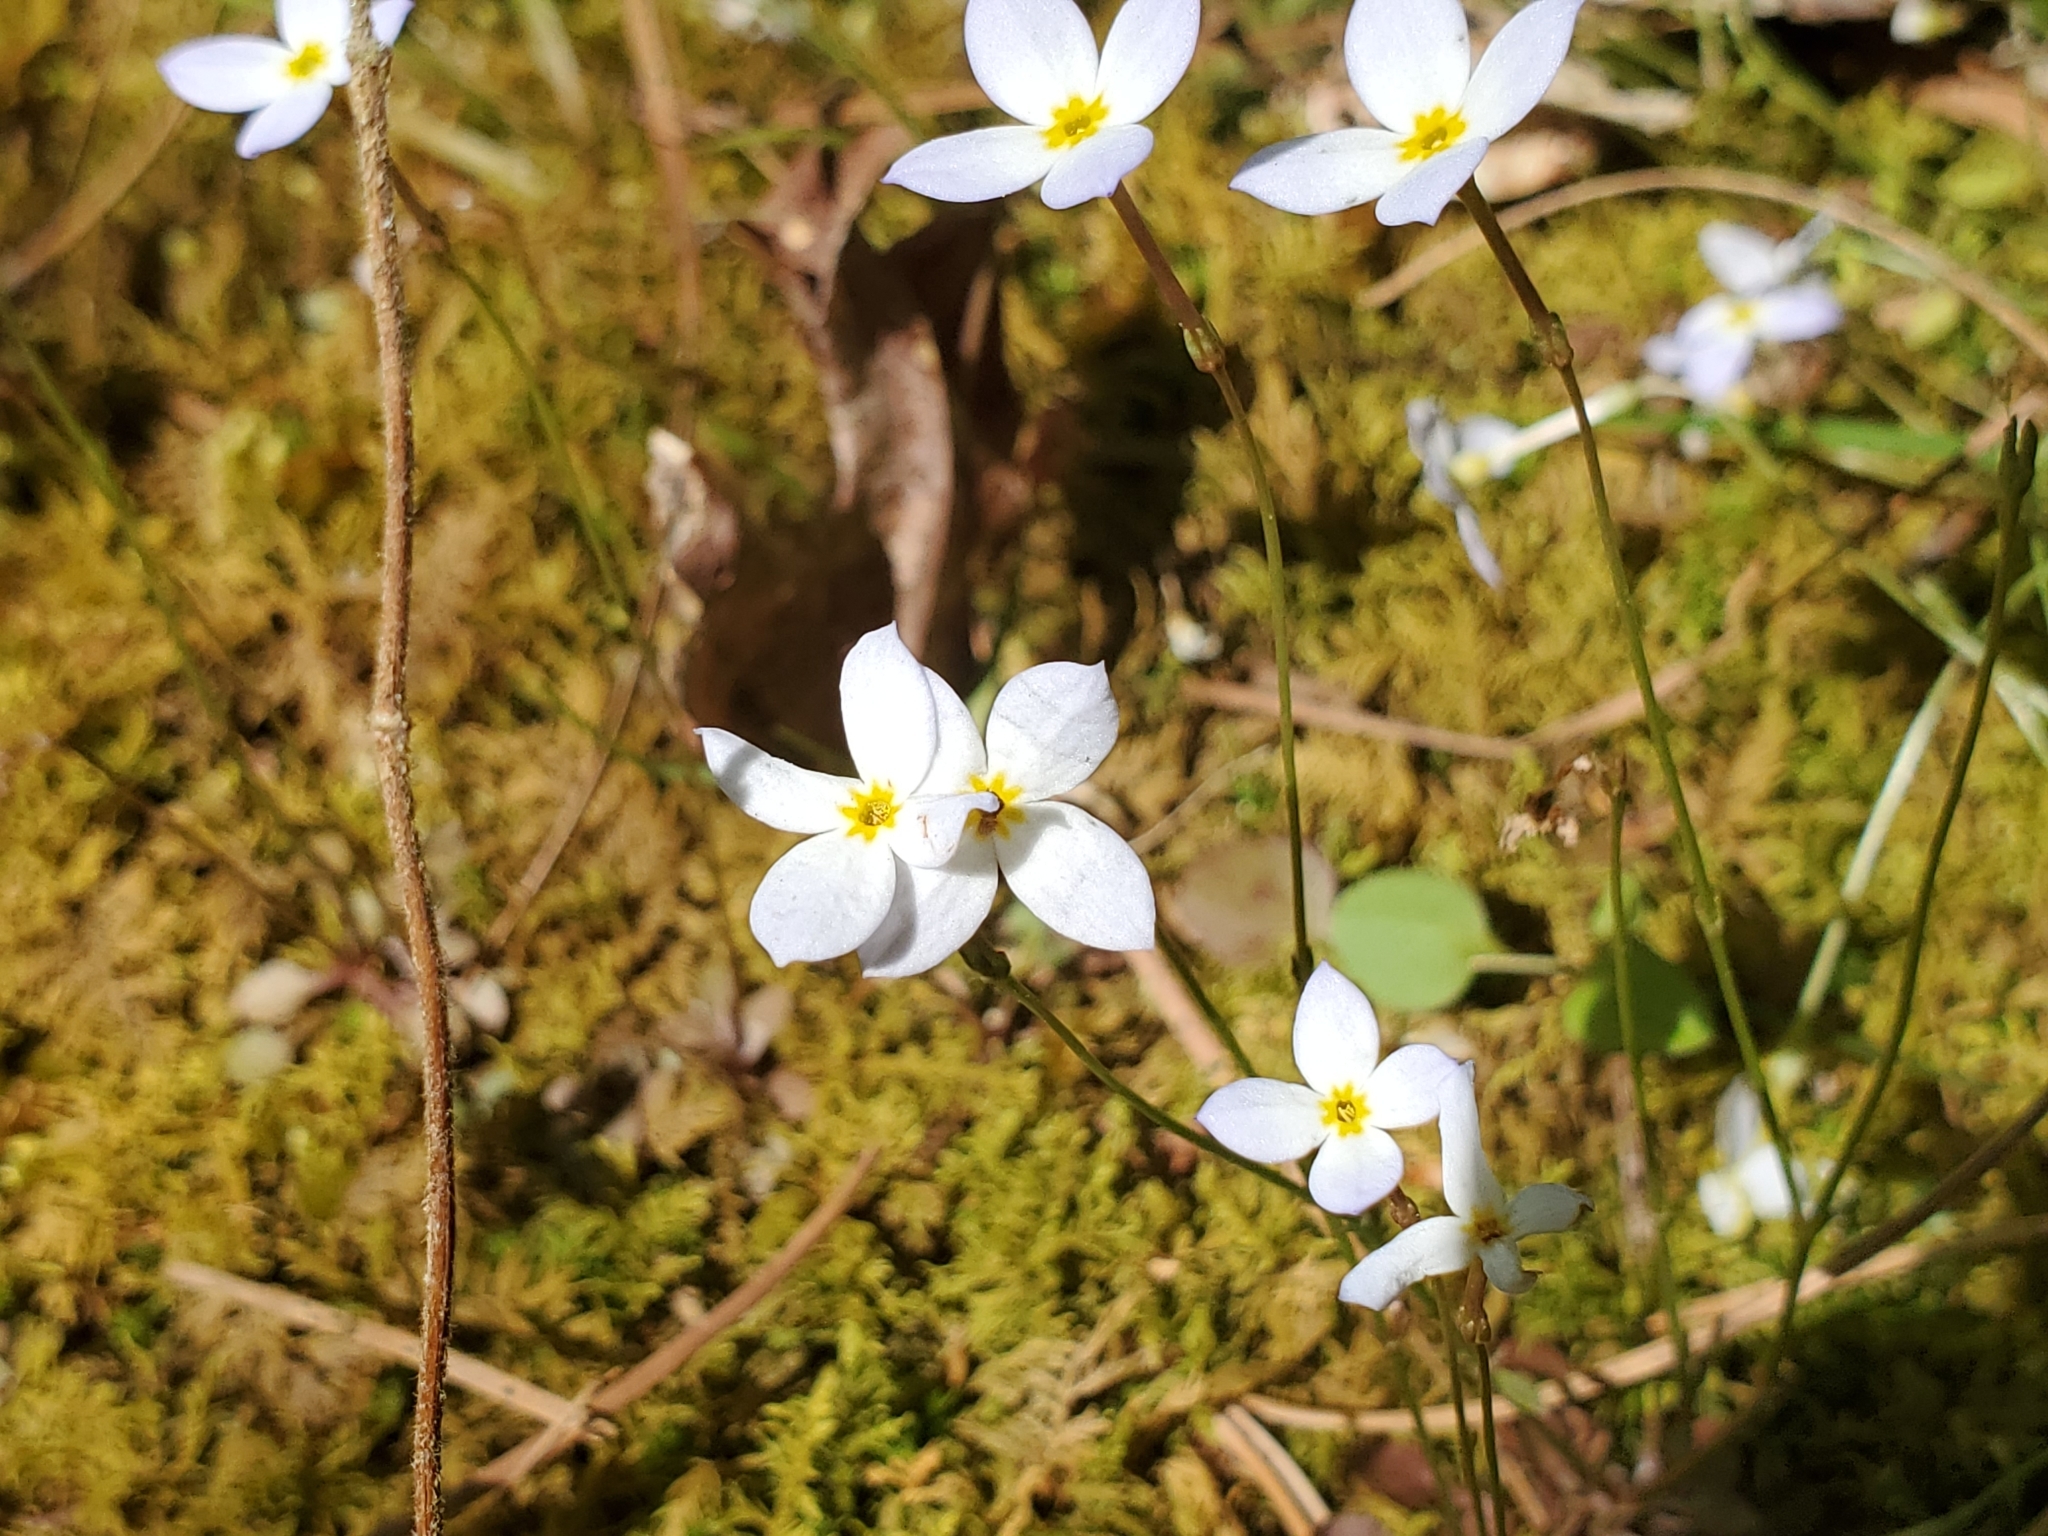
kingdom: Plantae
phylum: Tracheophyta
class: Magnoliopsida
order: Gentianales
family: Rubiaceae
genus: Houstonia
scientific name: Houstonia caerulea
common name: Bluets
